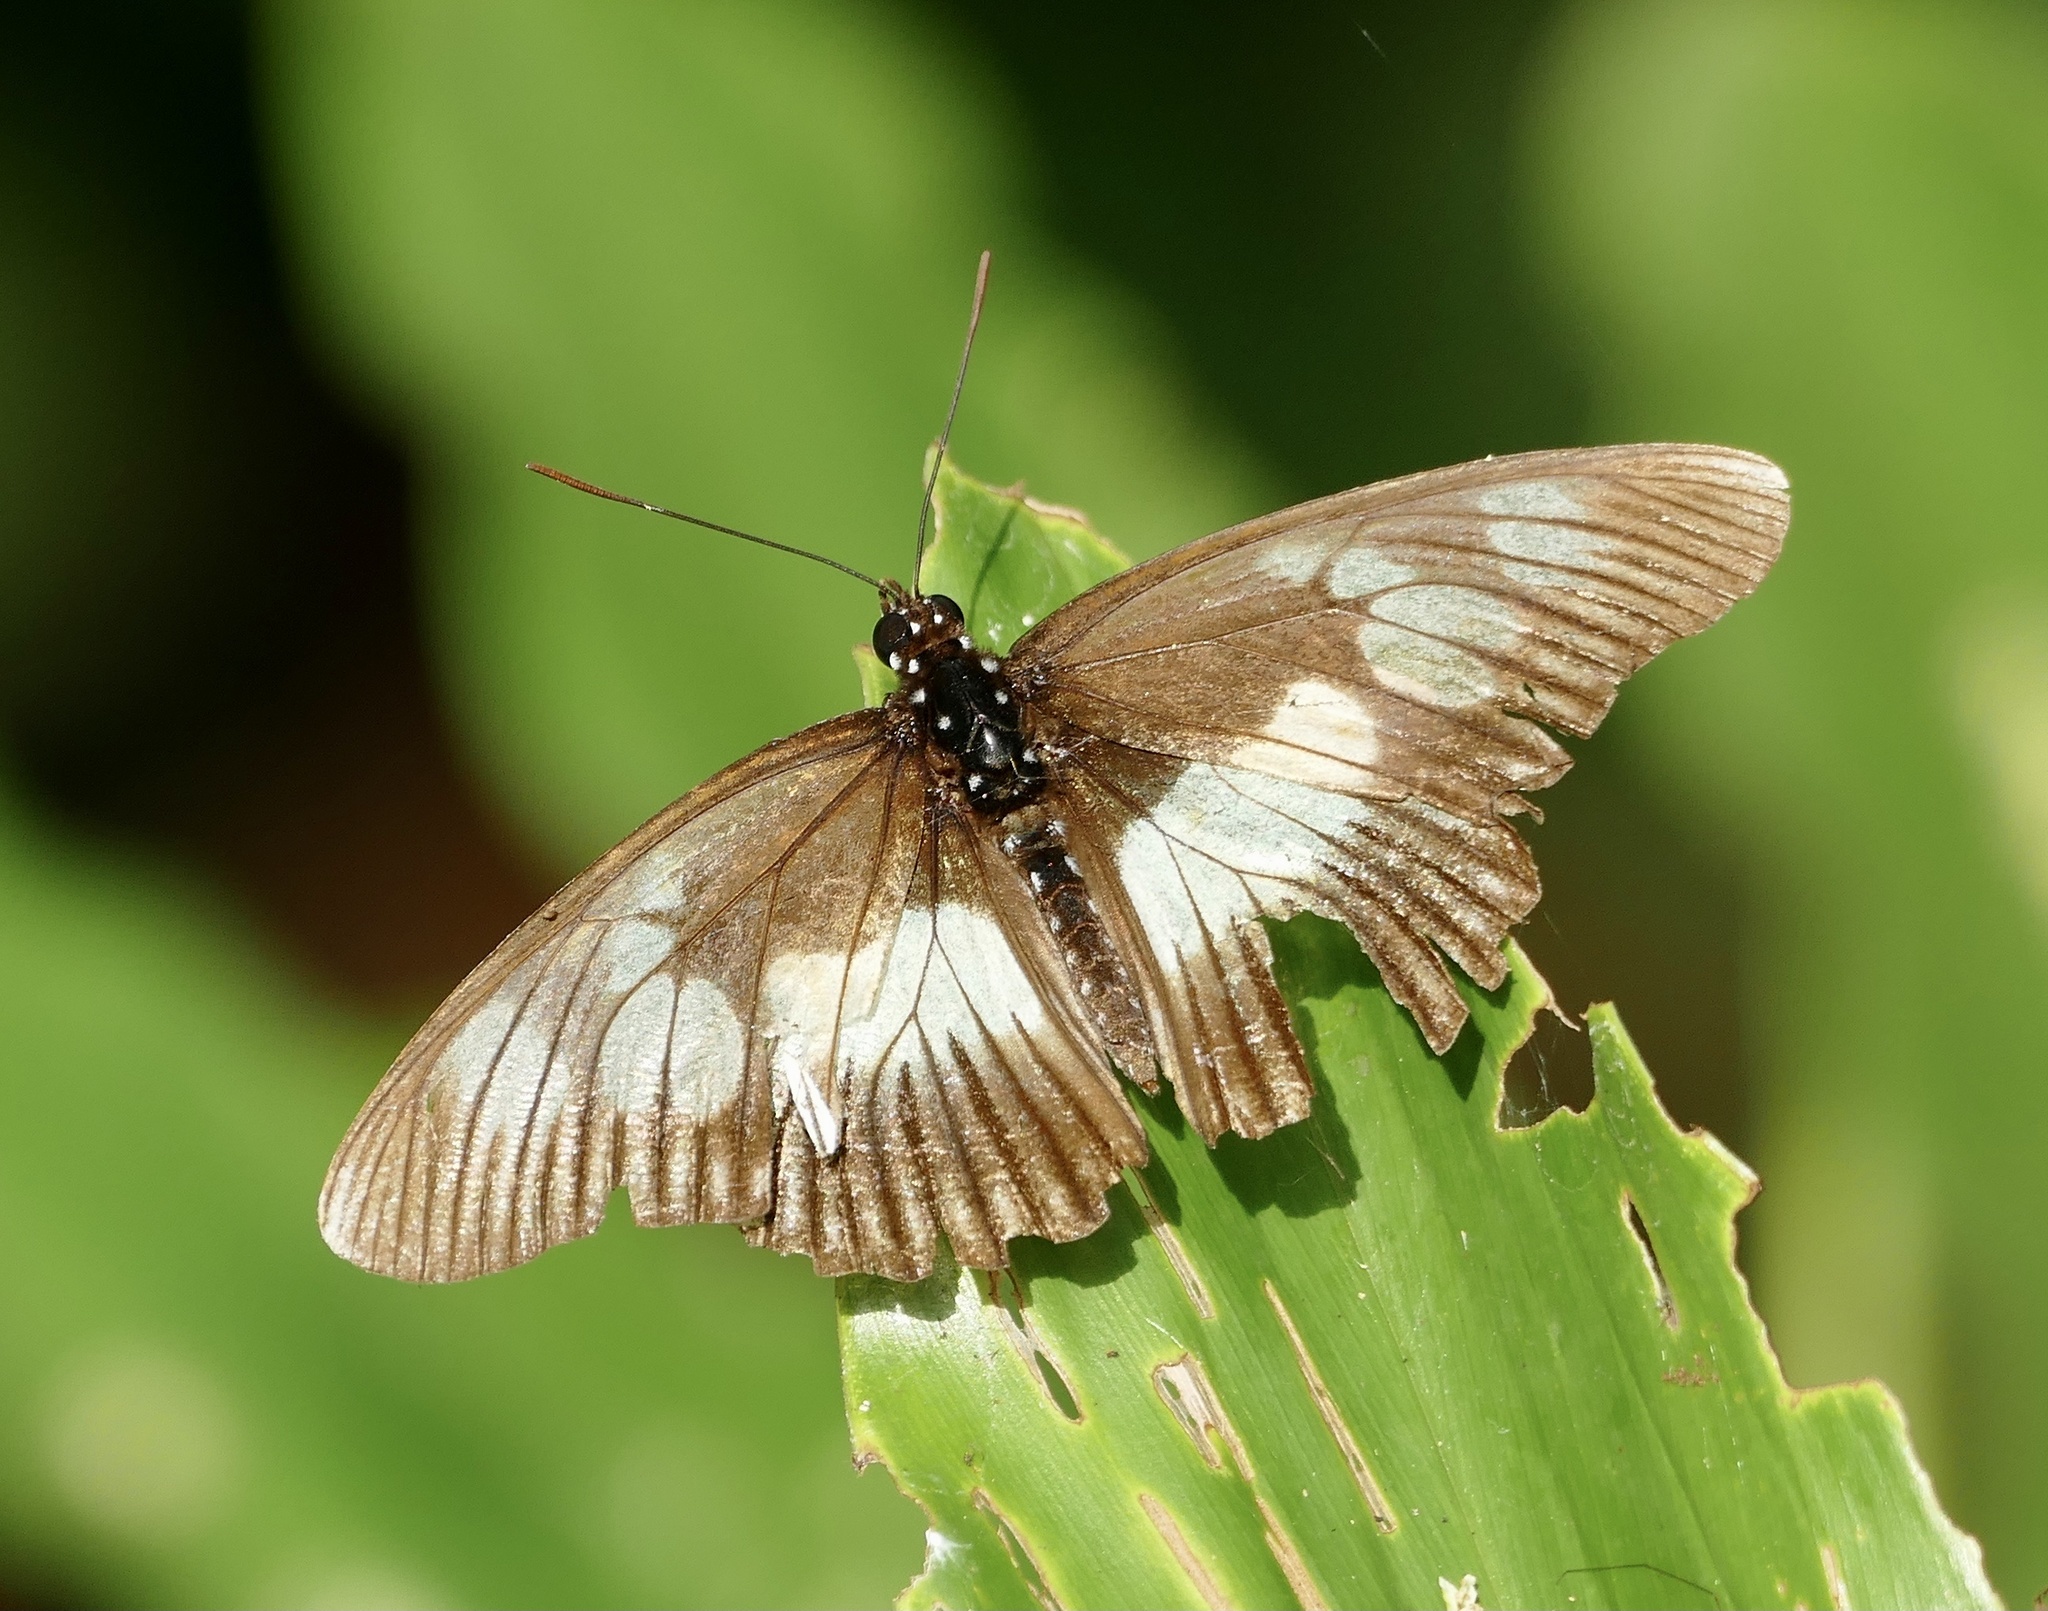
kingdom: Animalia
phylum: Arthropoda
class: Insecta
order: Lepidoptera
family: Nymphalidae
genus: Chloropoea
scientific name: Chloropoea lucretia
